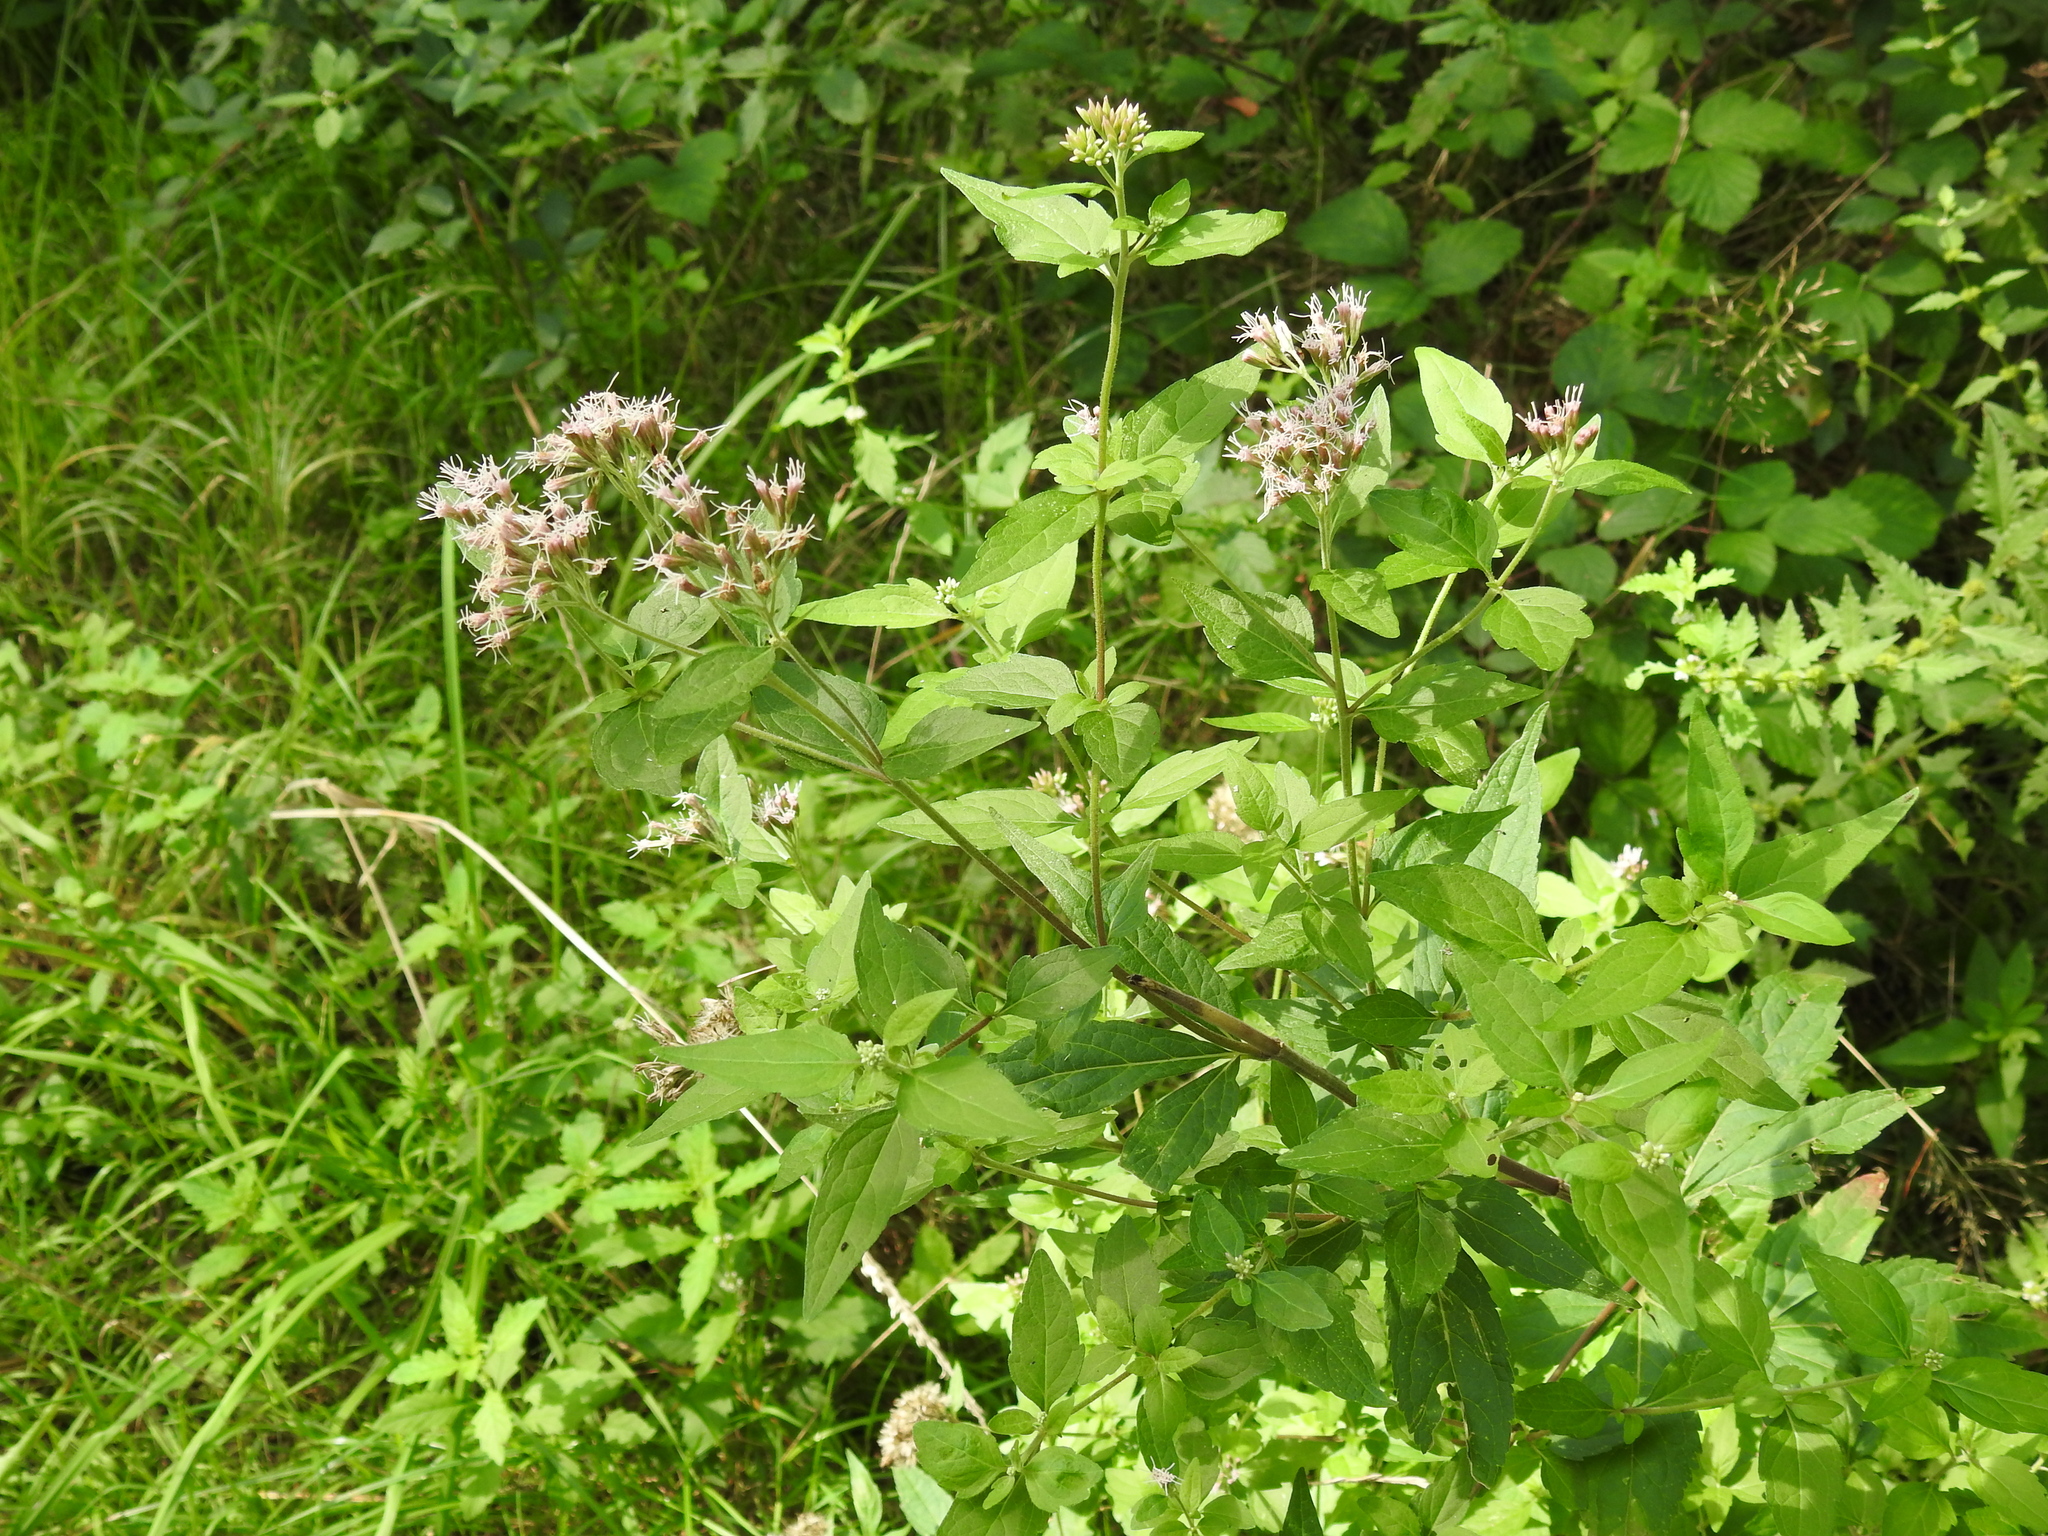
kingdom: Plantae
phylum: Tracheophyta
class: Magnoliopsida
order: Asterales
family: Asteraceae
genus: Eupatorium
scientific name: Eupatorium cannabinum
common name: Hemp-agrimony
